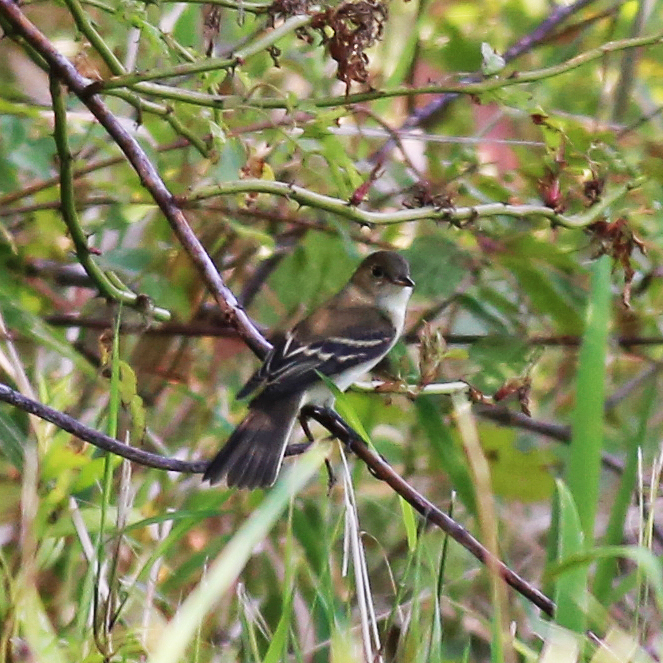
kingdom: Animalia
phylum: Chordata
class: Aves
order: Passeriformes
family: Tyrannidae
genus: Empidonax
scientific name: Empidonax traillii
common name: Willow flycatcher
